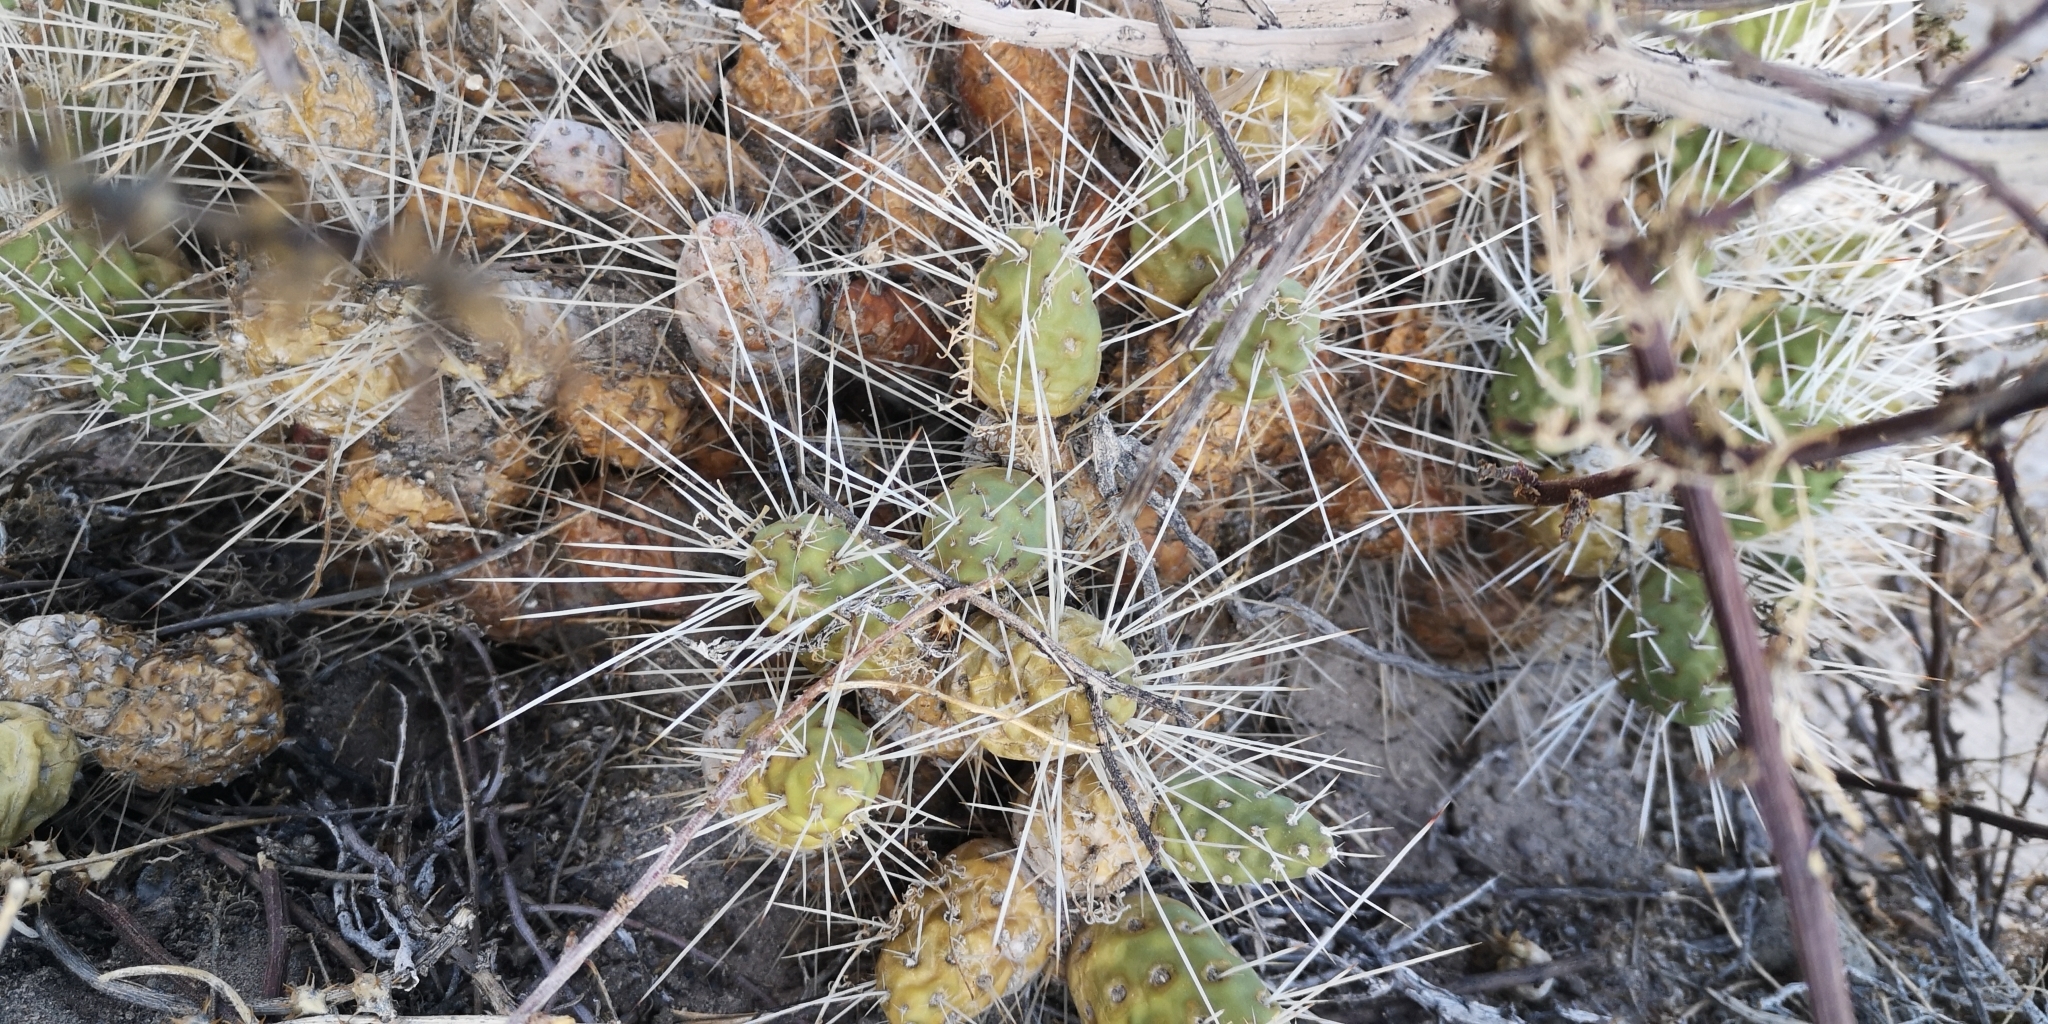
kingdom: Plantae
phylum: Tracheophyta
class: Magnoliopsida
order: Caryophyllales
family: Cactaceae
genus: Maihueniopsis
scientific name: Maihueniopsis camachoi
